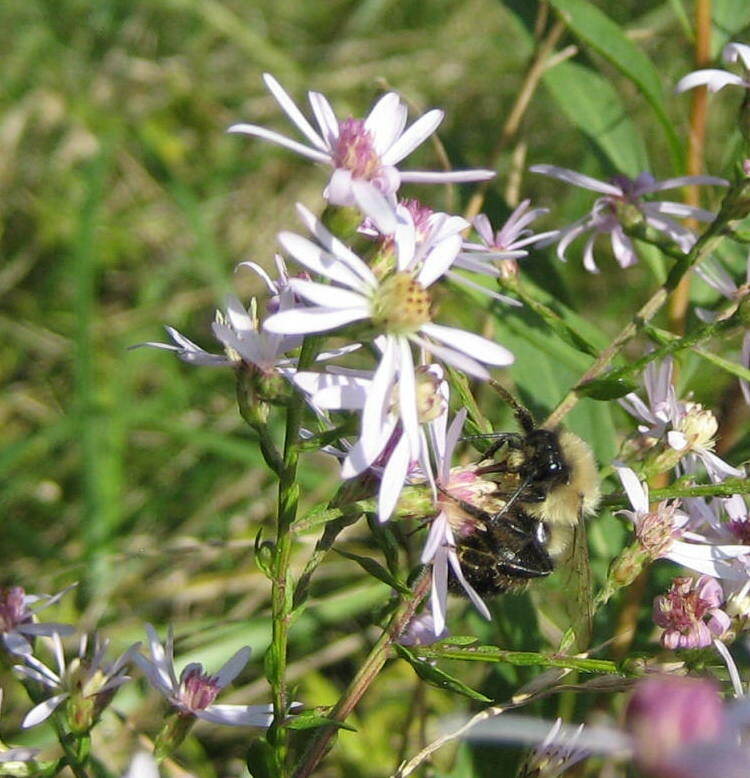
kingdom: Animalia
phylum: Arthropoda
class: Insecta
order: Hymenoptera
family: Apidae
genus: Bombus
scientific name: Bombus impatiens
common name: Common eastern bumble bee
